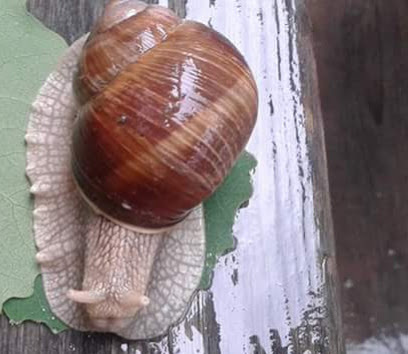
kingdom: Animalia
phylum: Mollusca
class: Gastropoda
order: Stylommatophora
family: Helicidae
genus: Helix
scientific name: Helix pomatia
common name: Roman snail
